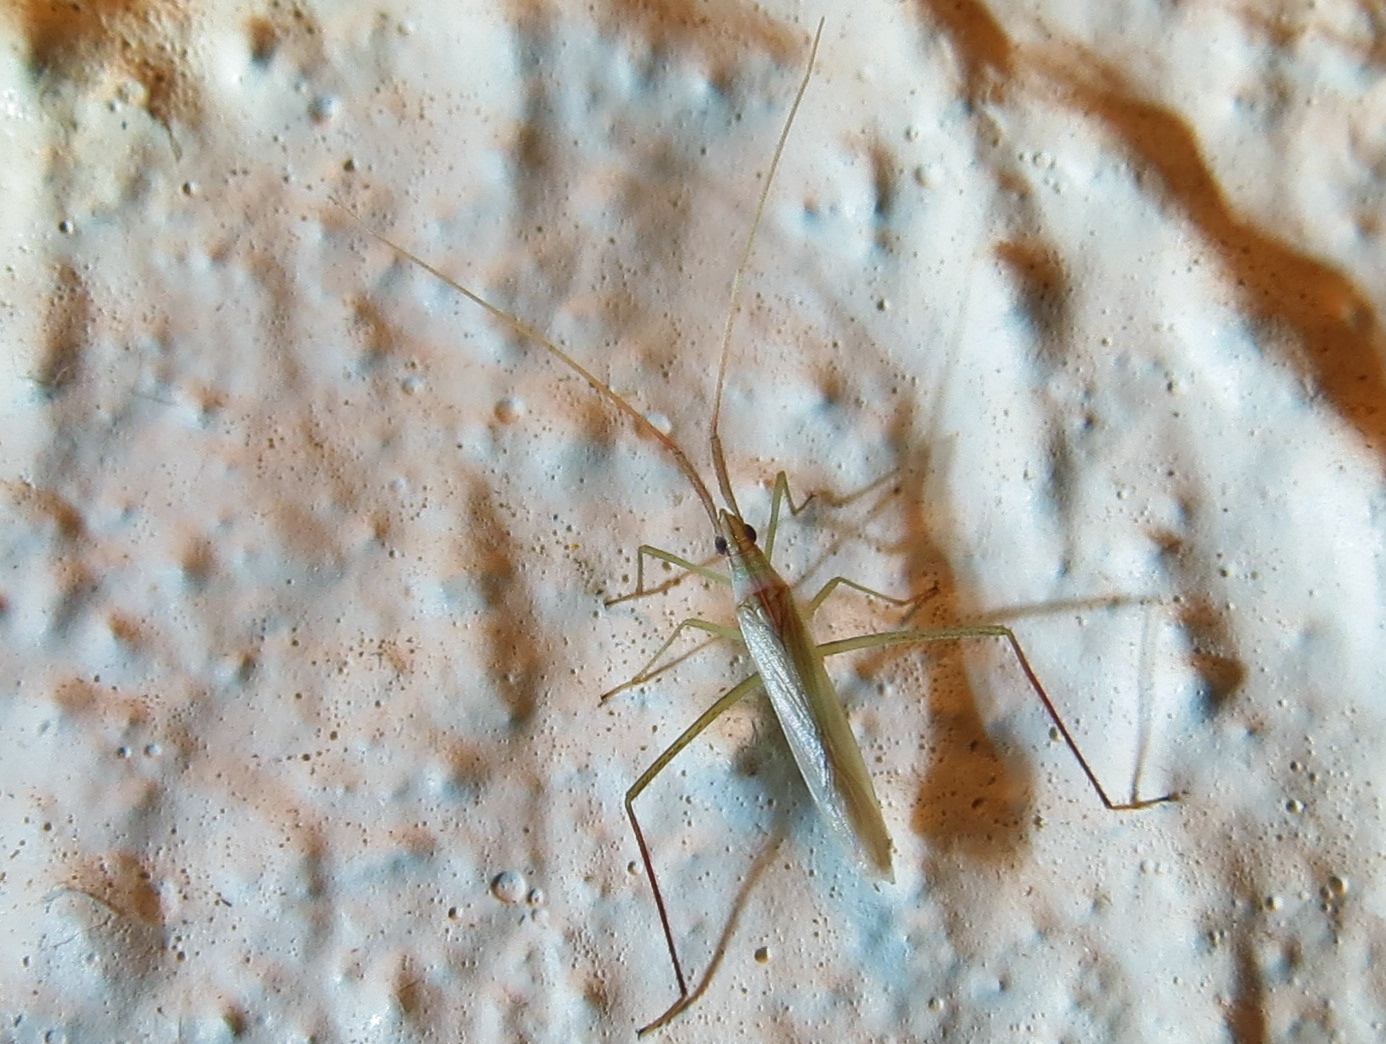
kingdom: Animalia
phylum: Arthropoda
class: Insecta
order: Hemiptera
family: Miridae
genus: Dolichomiris
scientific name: Dolichomiris linearis
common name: Plant bug
